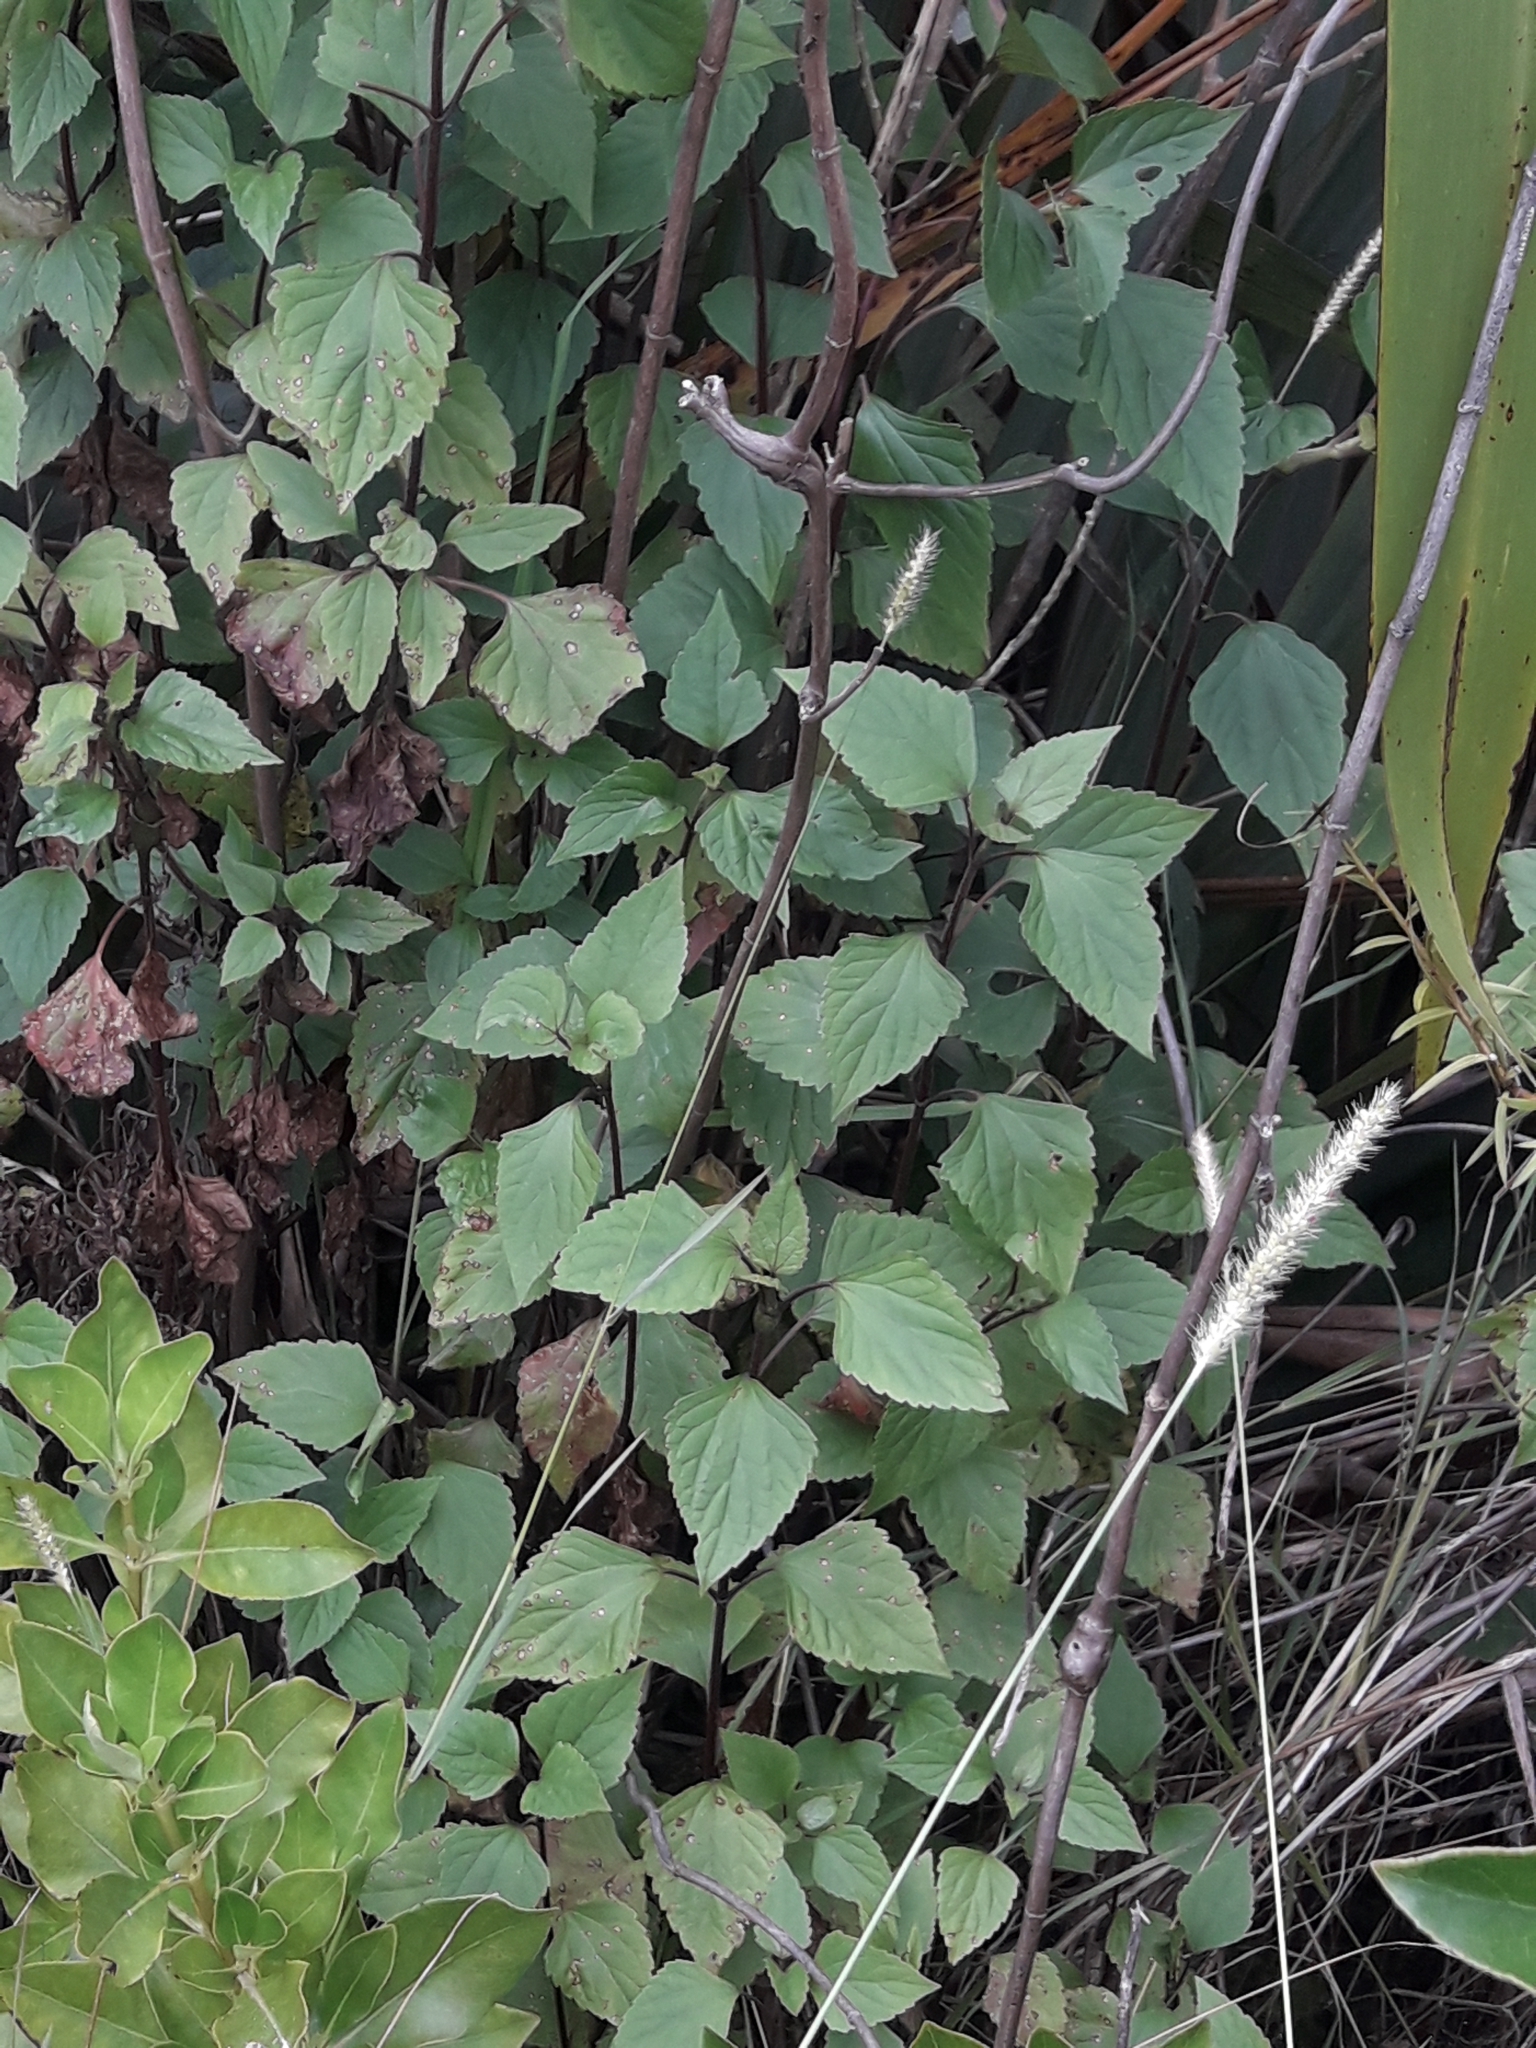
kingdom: Plantae
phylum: Tracheophyta
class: Magnoliopsida
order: Asterales
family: Asteraceae
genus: Ageratina
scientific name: Ageratina adenophora
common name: Sticky snakeroot
